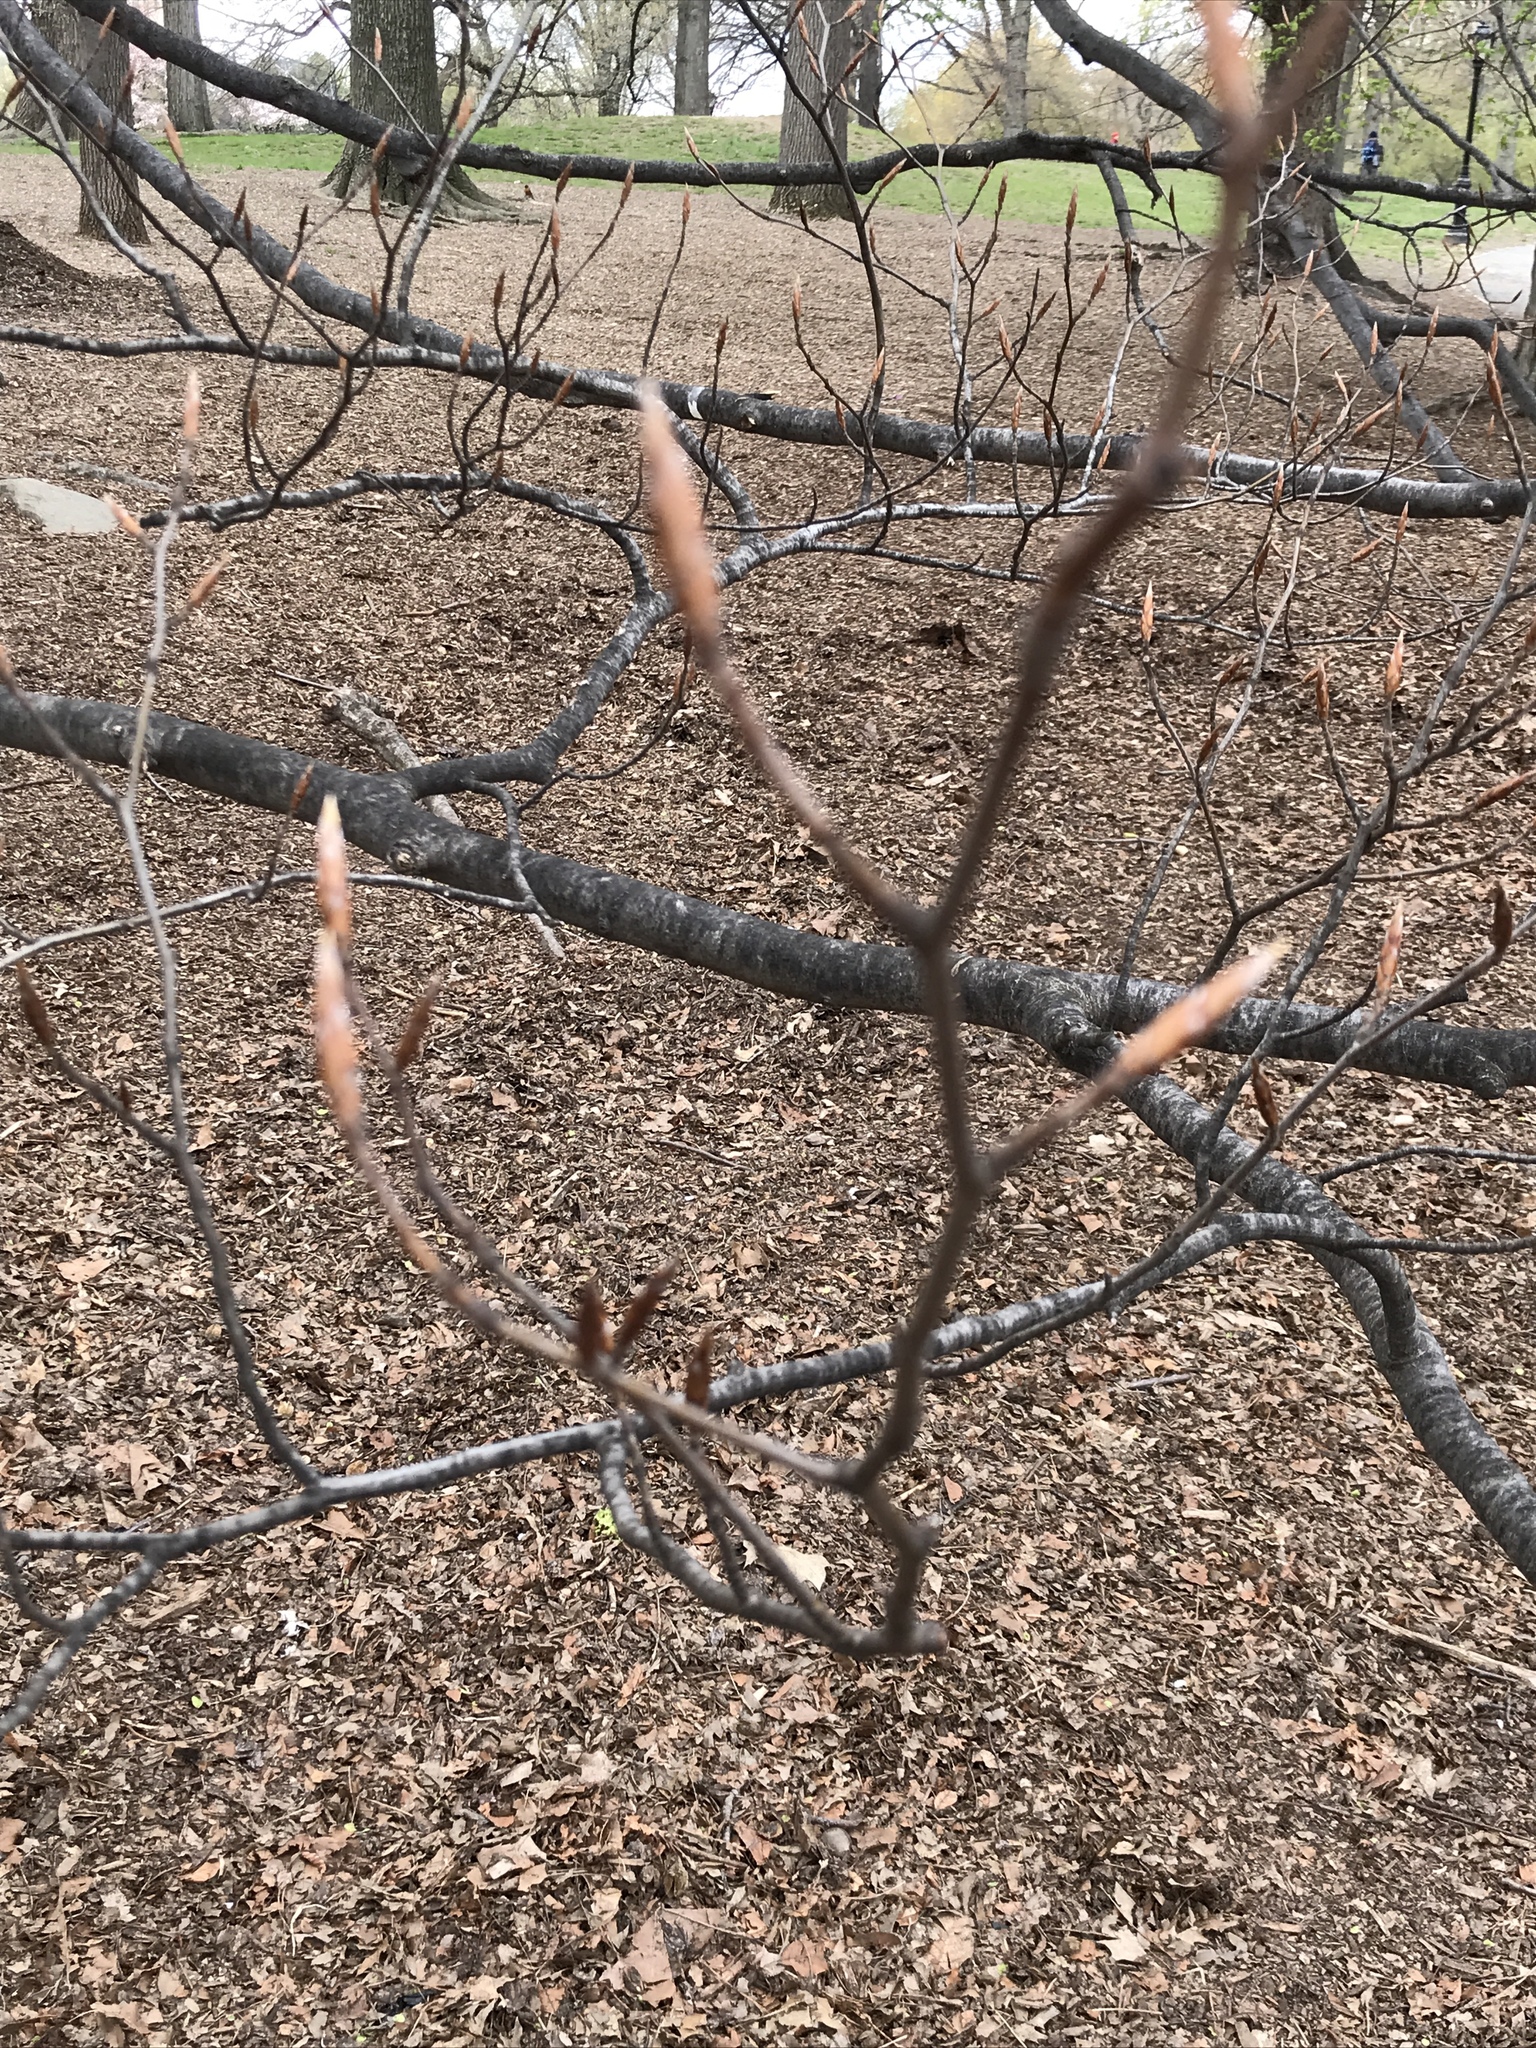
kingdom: Plantae
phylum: Tracheophyta
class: Magnoliopsida
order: Fagales
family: Fagaceae
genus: Fagus
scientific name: Fagus grandifolia
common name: American beech
